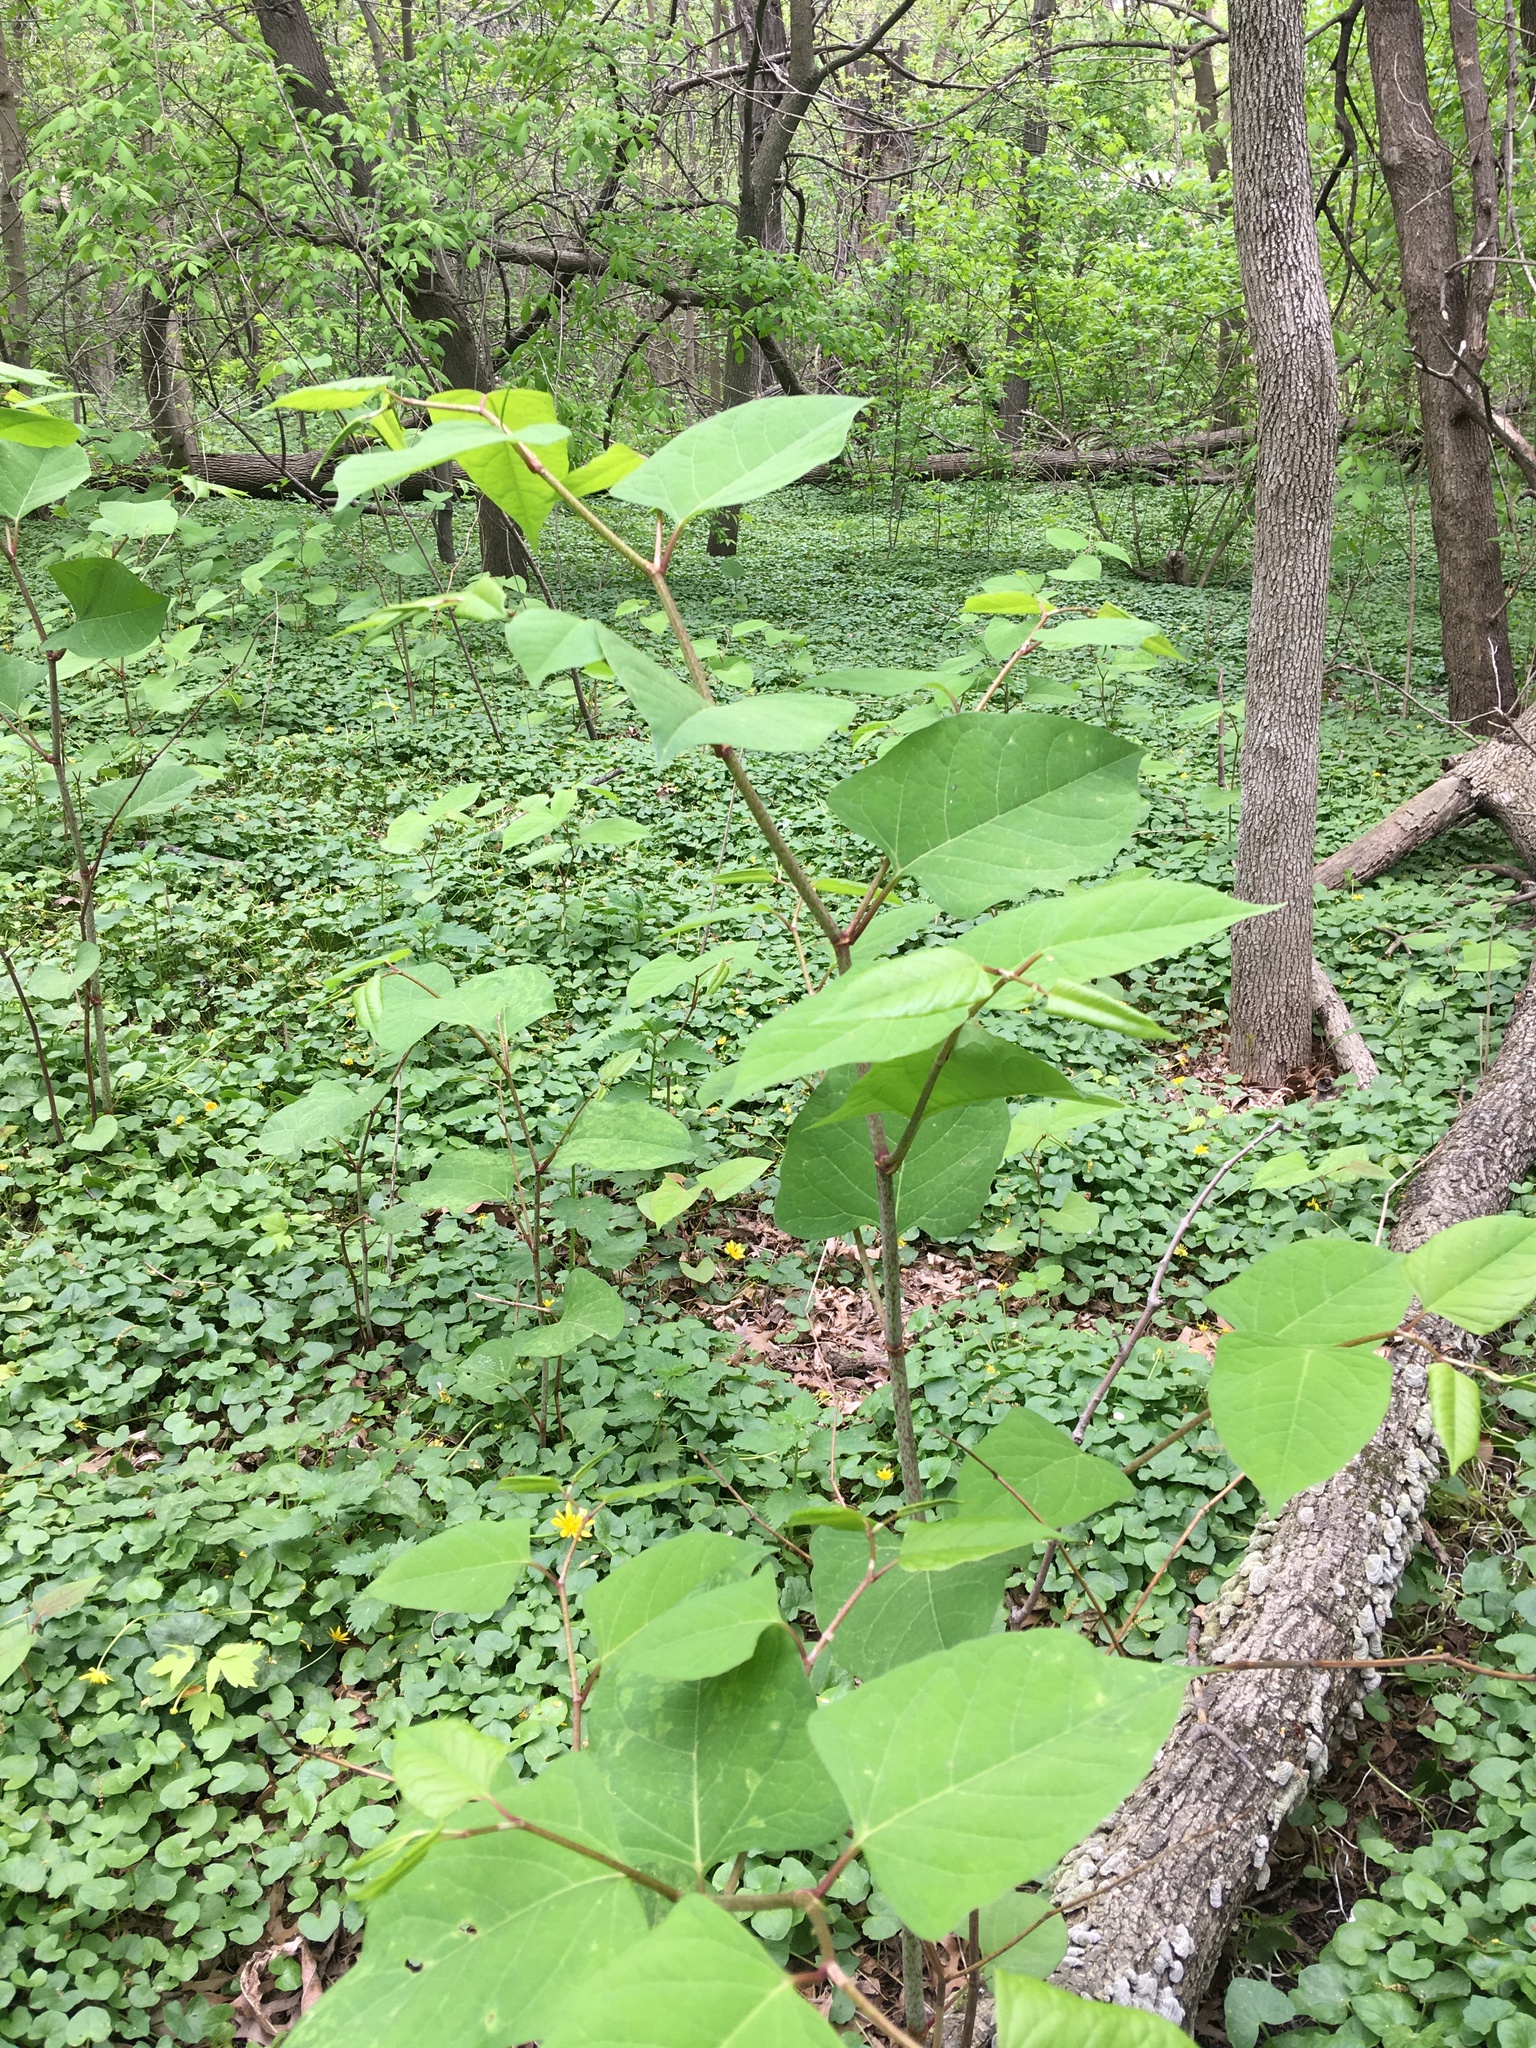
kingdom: Plantae
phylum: Tracheophyta
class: Magnoliopsida
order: Caryophyllales
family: Polygonaceae
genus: Reynoutria
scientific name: Reynoutria japonica
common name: Japanese knotweed
